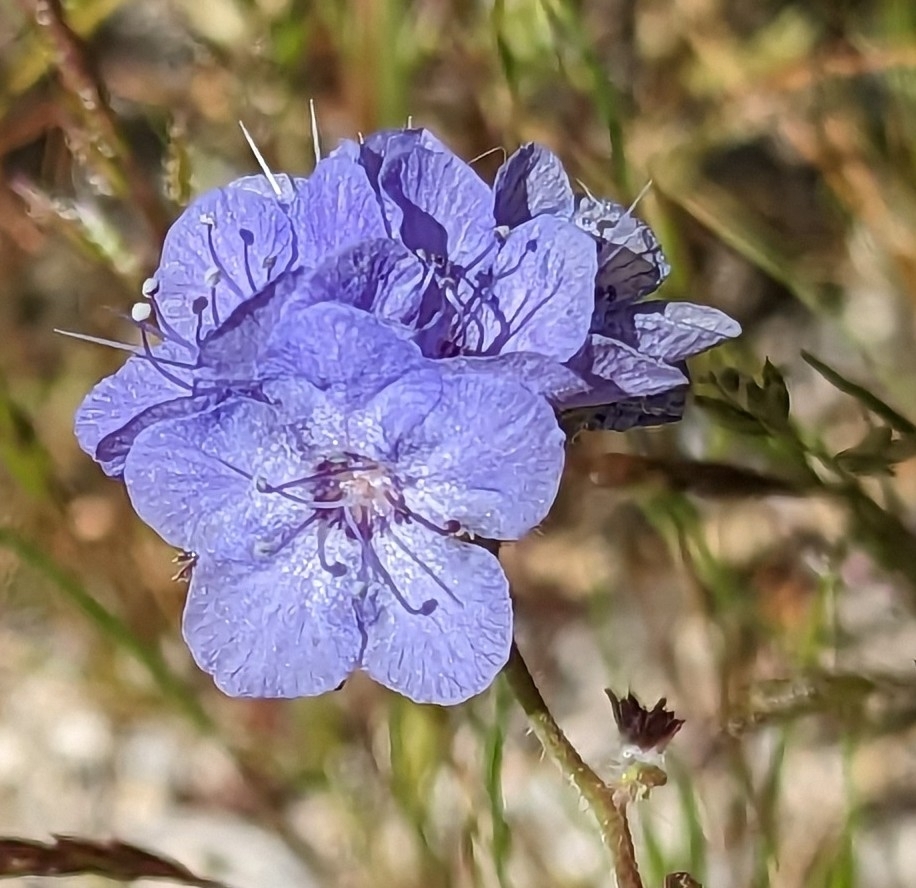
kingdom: Plantae
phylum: Tracheophyta
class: Magnoliopsida
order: Boraginales
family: Hydrophyllaceae
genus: Phacelia
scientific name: Phacelia distans
